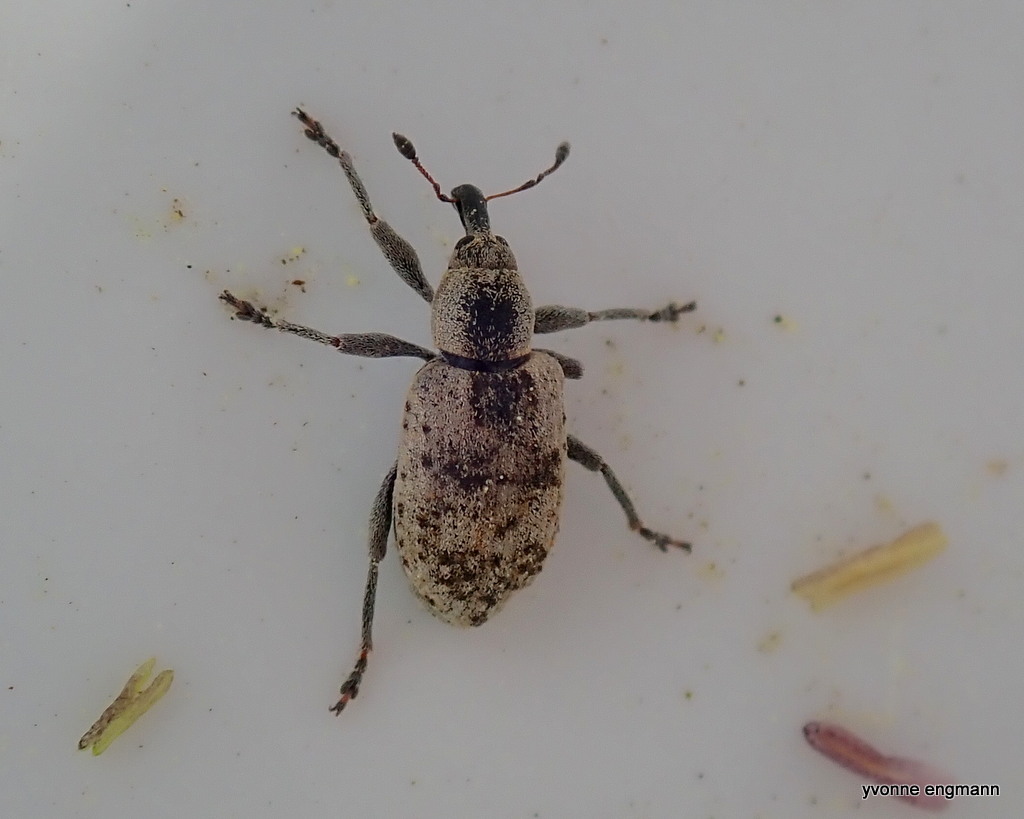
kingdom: Animalia
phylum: Arthropoda
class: Insecta
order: Coleoptera
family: Curculionidae
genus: Hypera
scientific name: Hypera rumicis
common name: Weevil
